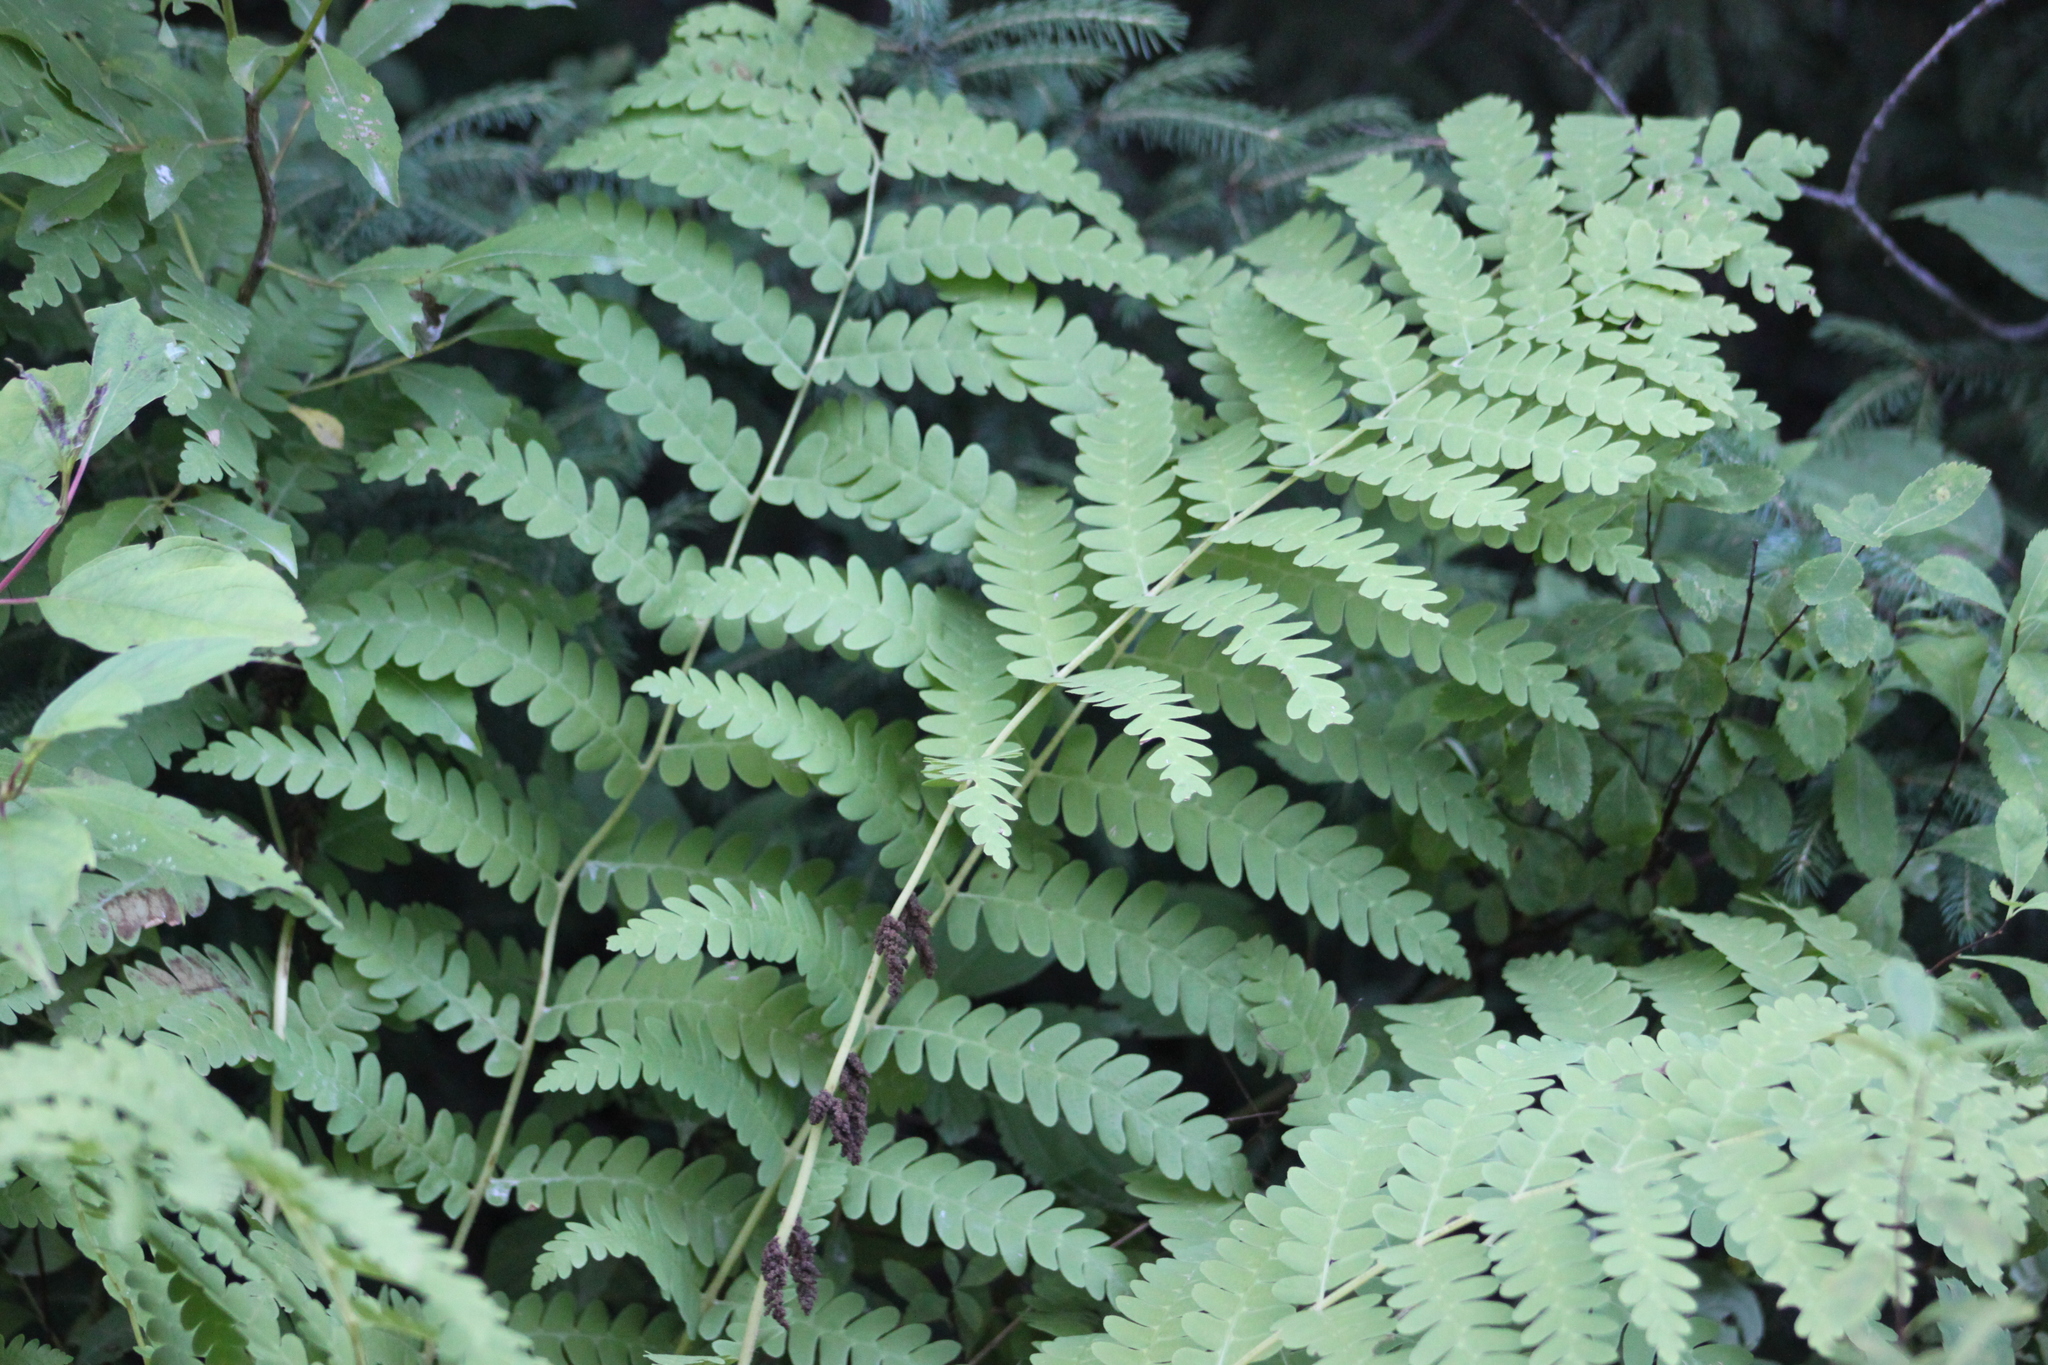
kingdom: Plantae
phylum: Tracheophyta
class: Polypodiopsida
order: Osmundales
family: Osmundaceae
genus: Claytosmunda
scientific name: Claytosmunda claytoniana
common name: Clayton's fern
